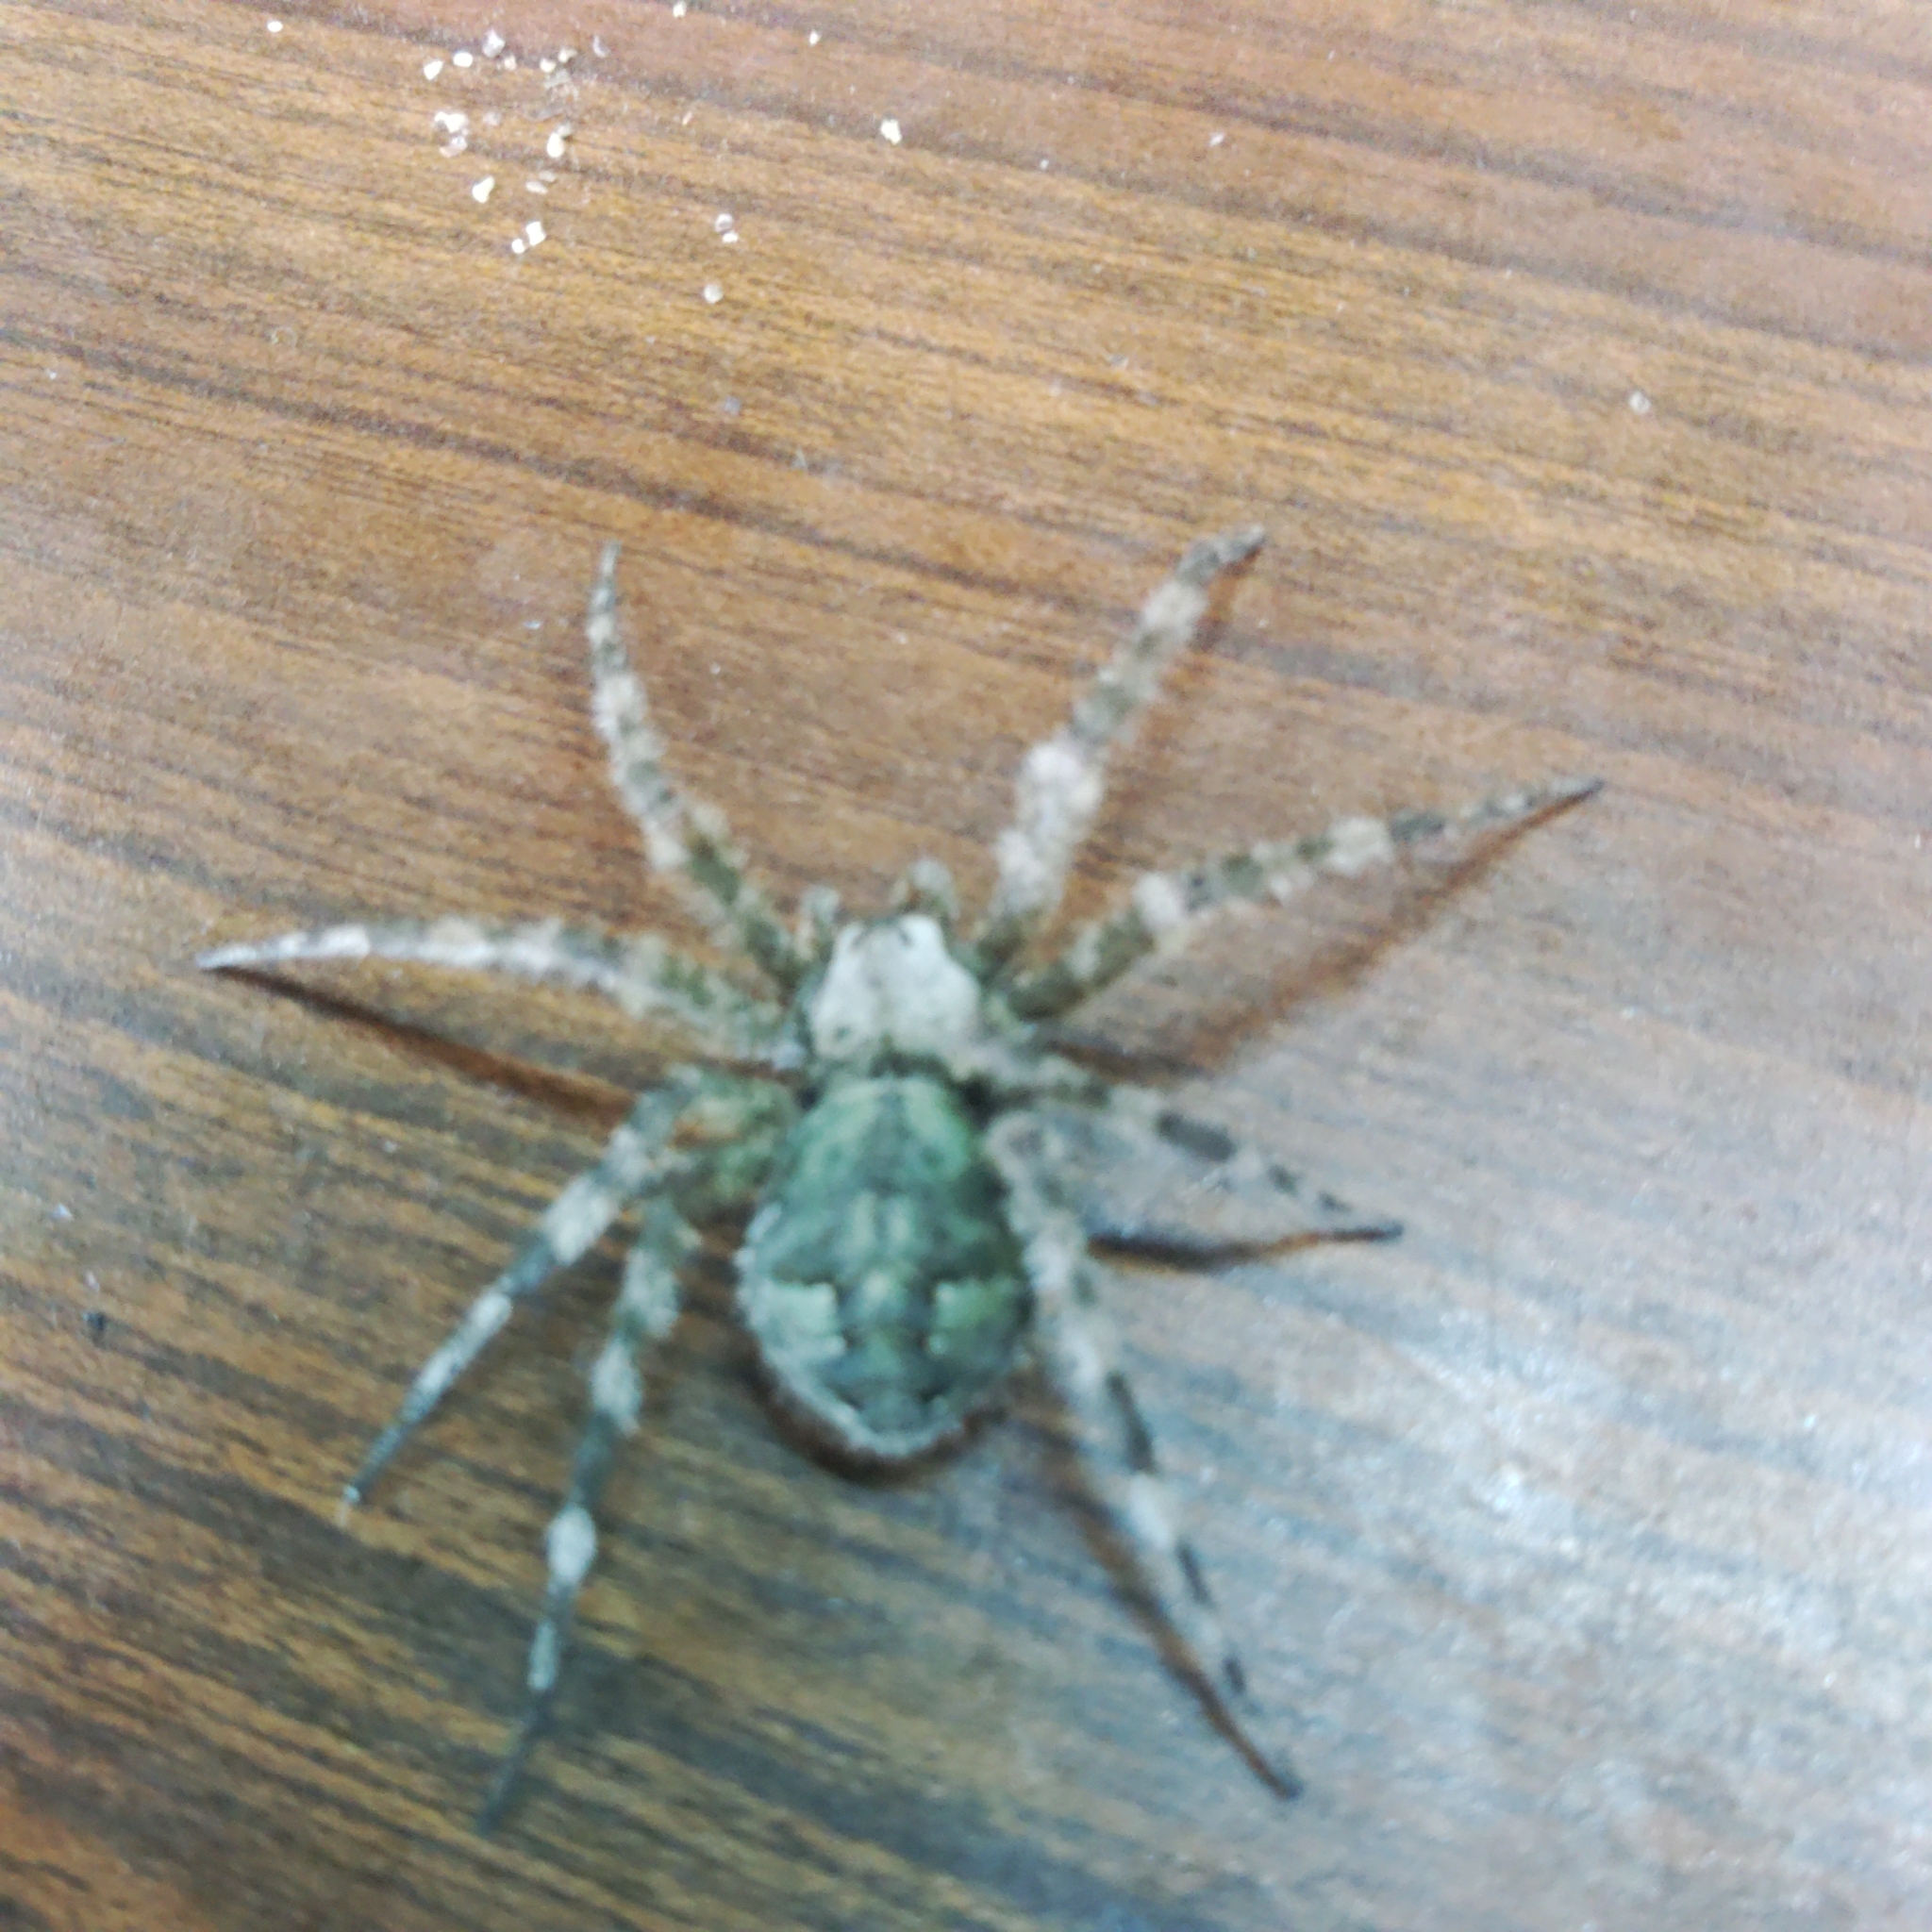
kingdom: Animalia
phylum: Arthropoda
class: Arachnida
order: Araneae
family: Pisauridae
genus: Dolomedes
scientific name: Dolomedes albineus
